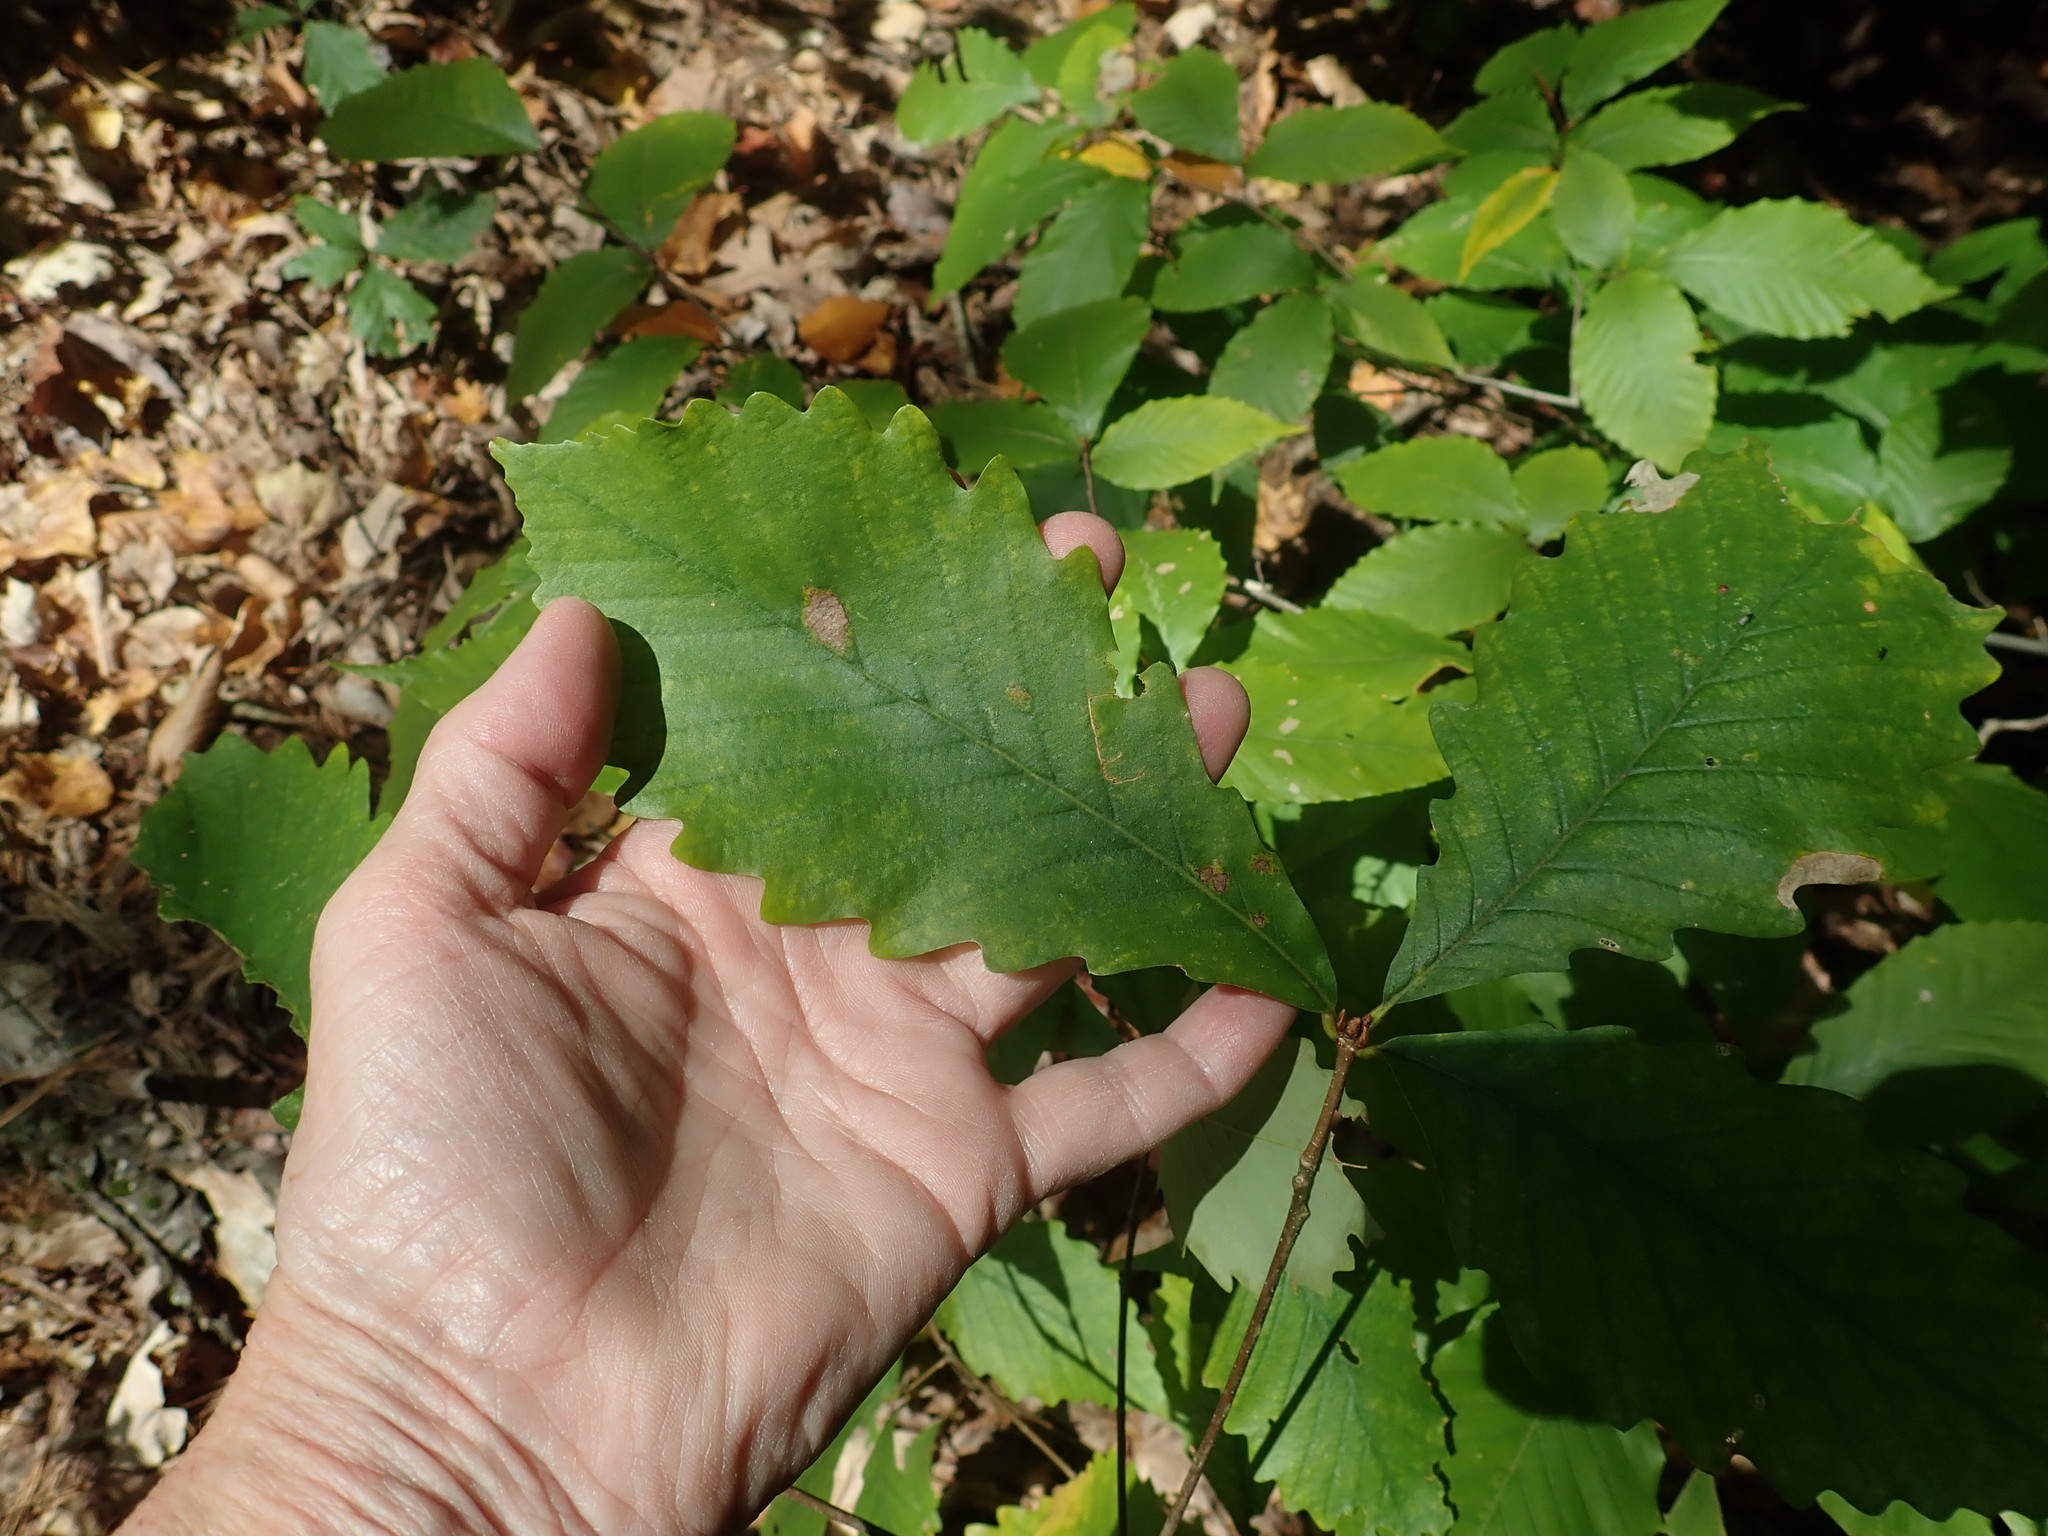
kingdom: Plantae
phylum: Tracheophyta
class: Magnoliopsida
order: Fagales
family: Fagaceae
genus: Quercus
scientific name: Quercus montana
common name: Chestnut oak
